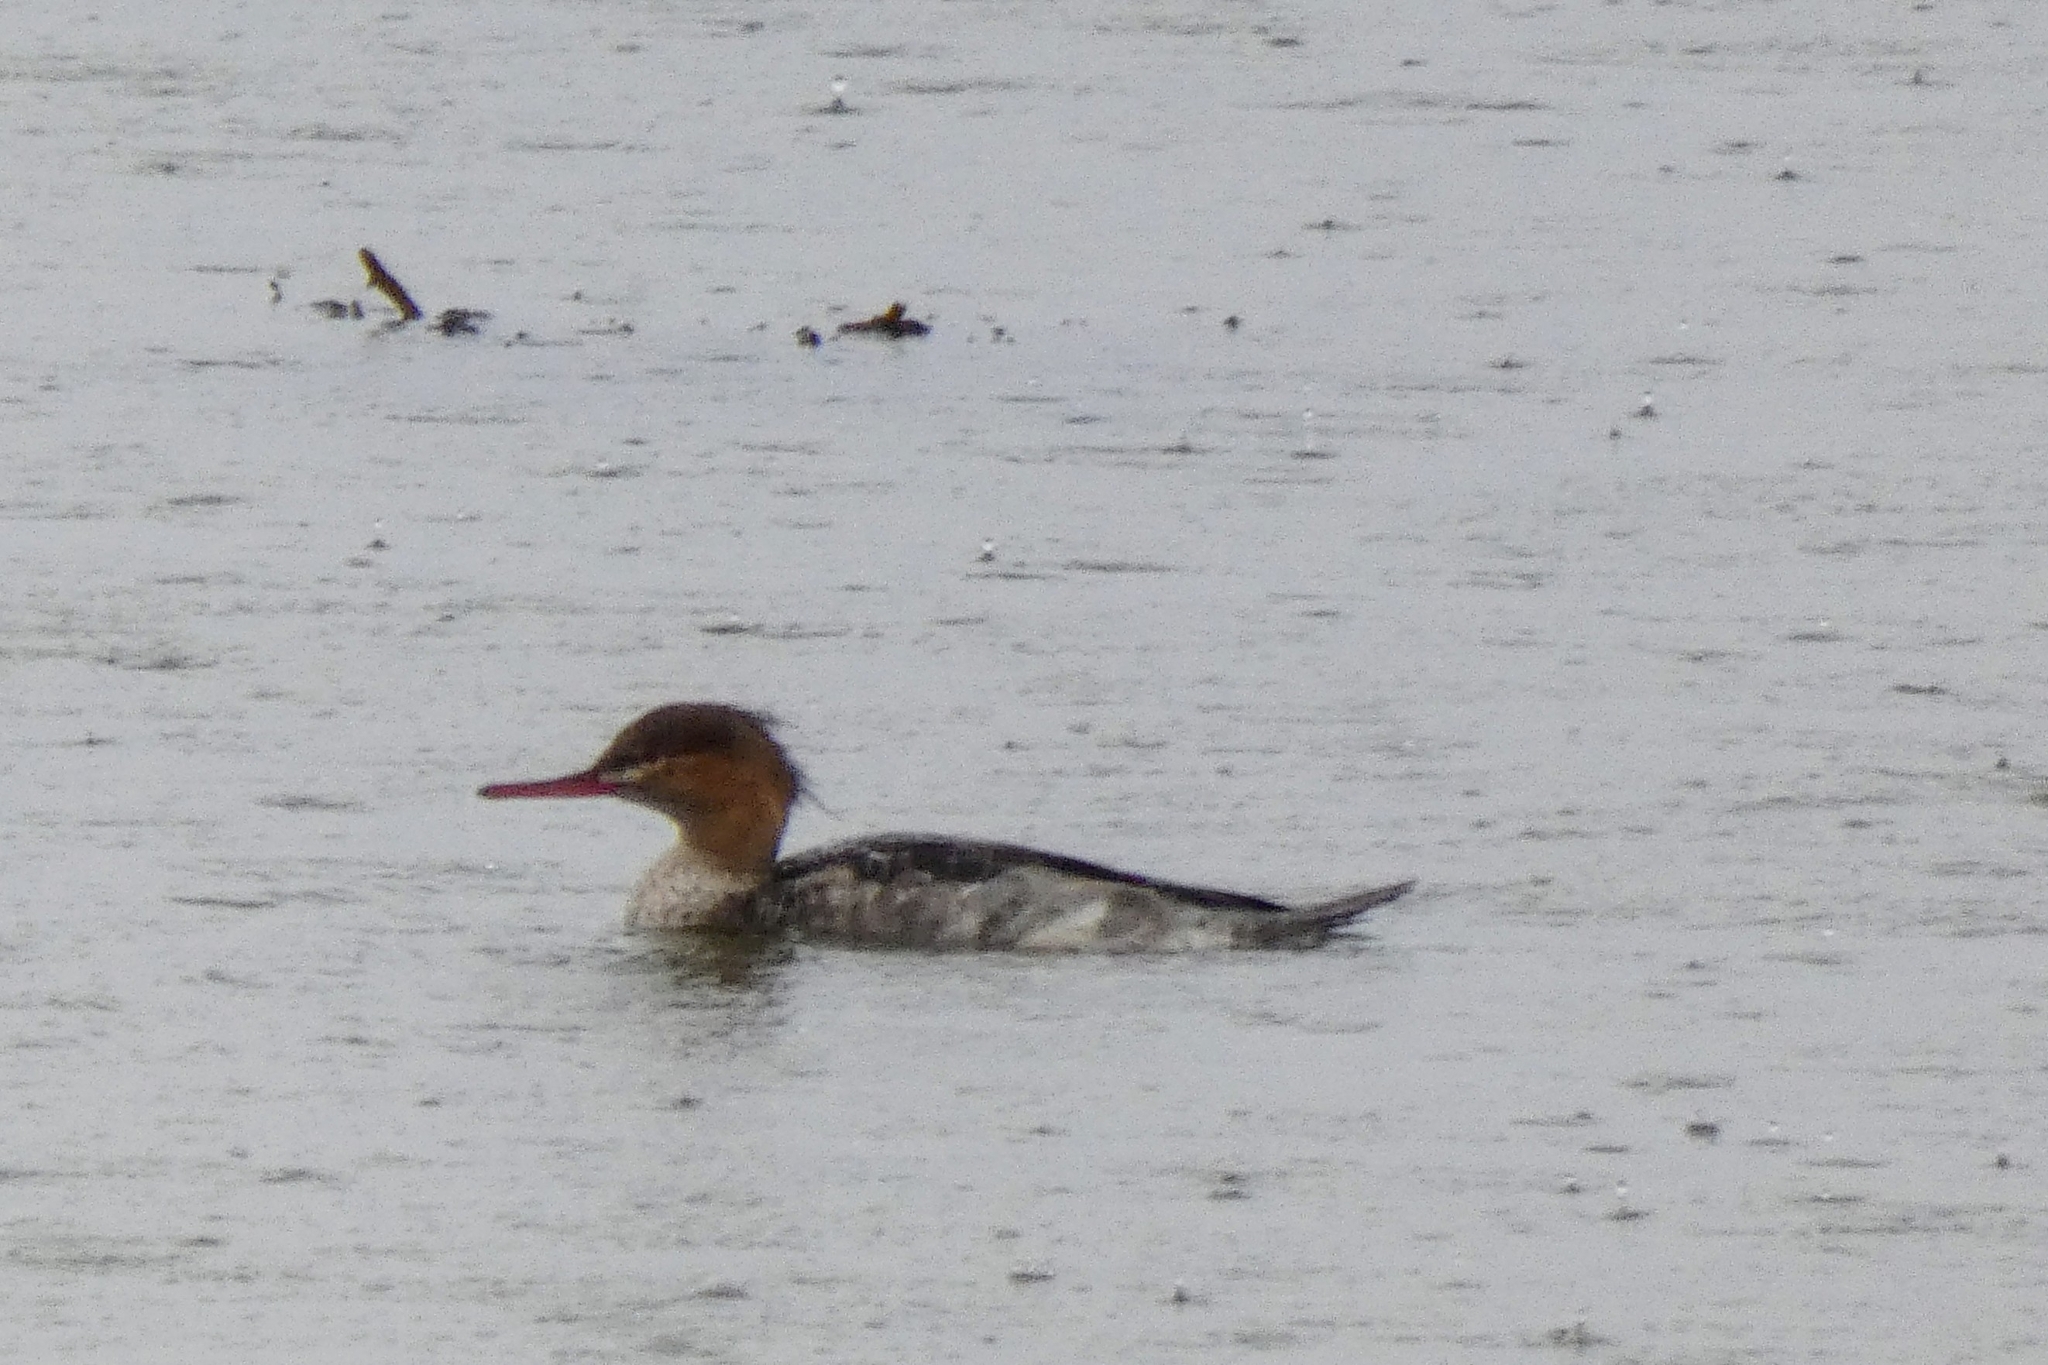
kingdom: Animalia
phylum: Chordata
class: Aves
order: Anseriformes
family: Anatidae
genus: Mergus
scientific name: Mergus serrator
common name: Red-breasted merganser
